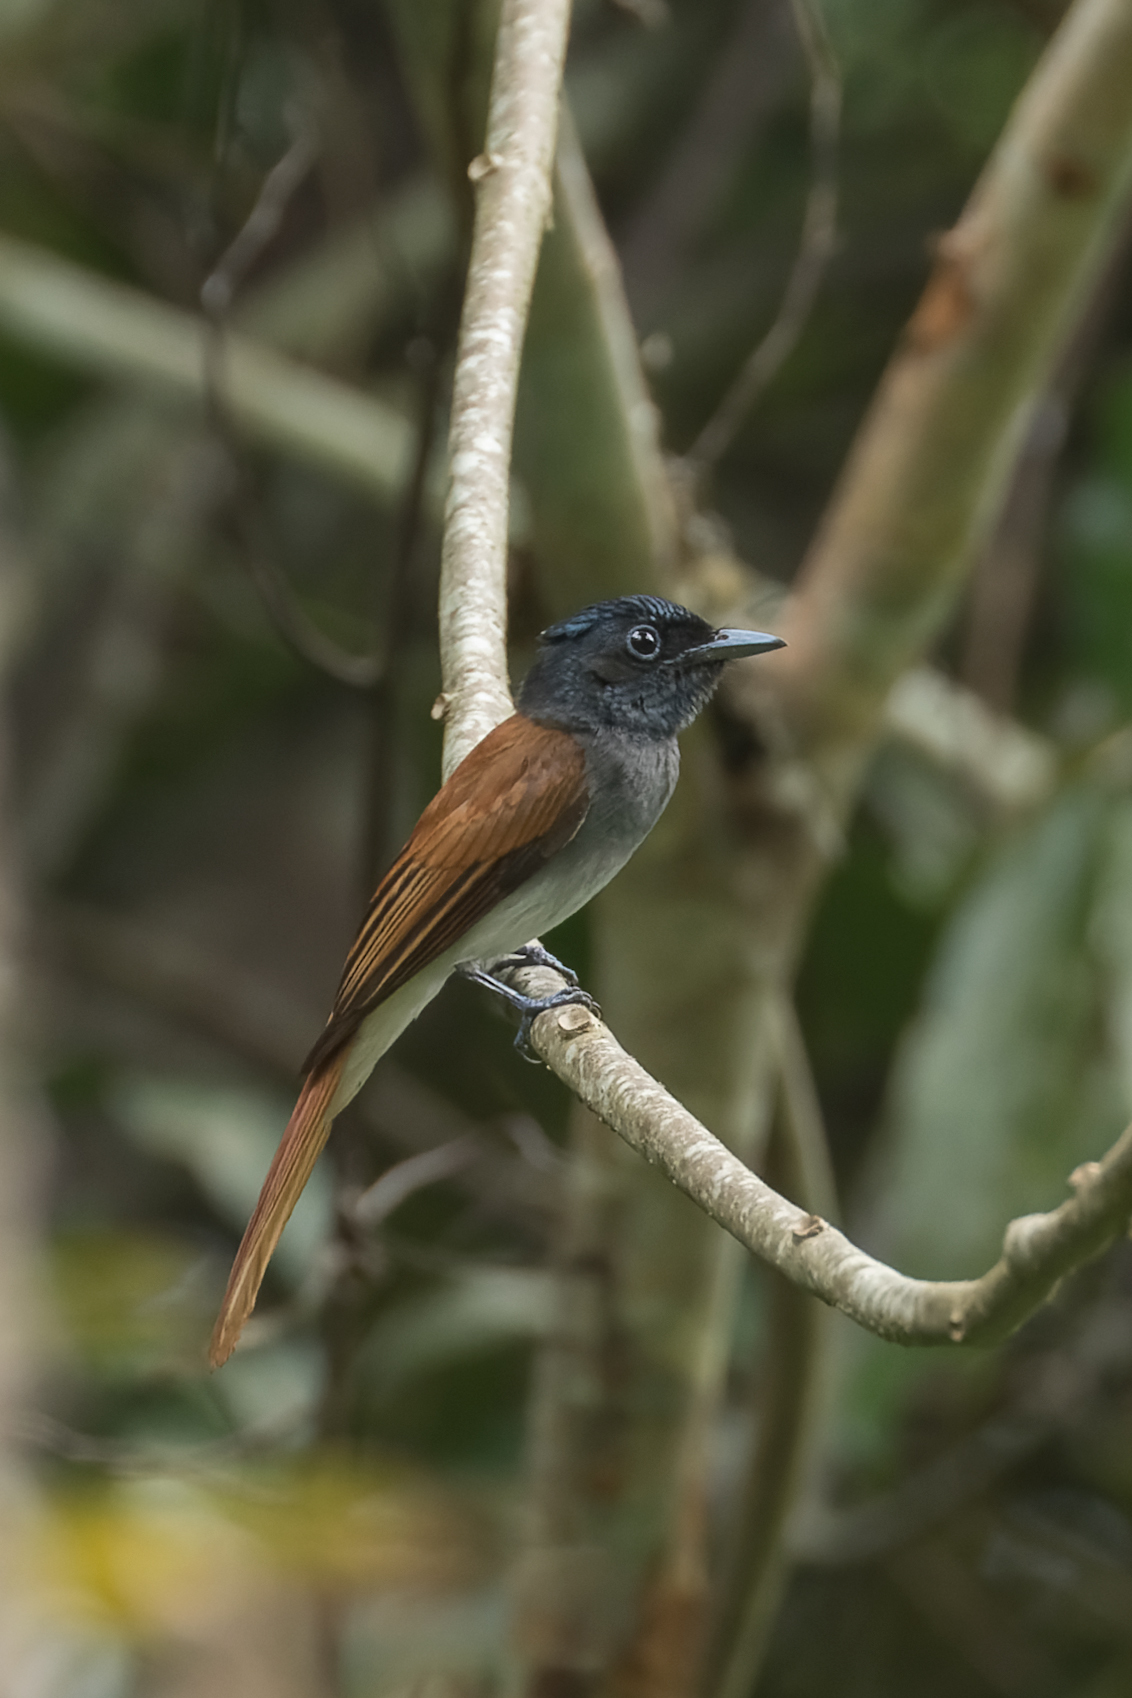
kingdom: Animalia
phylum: Chordata
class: Aves
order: Passeriformes
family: Monarchidae
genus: Terpsiphone
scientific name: Terpsiphone paradisi
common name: Indian paradise flycatcher
